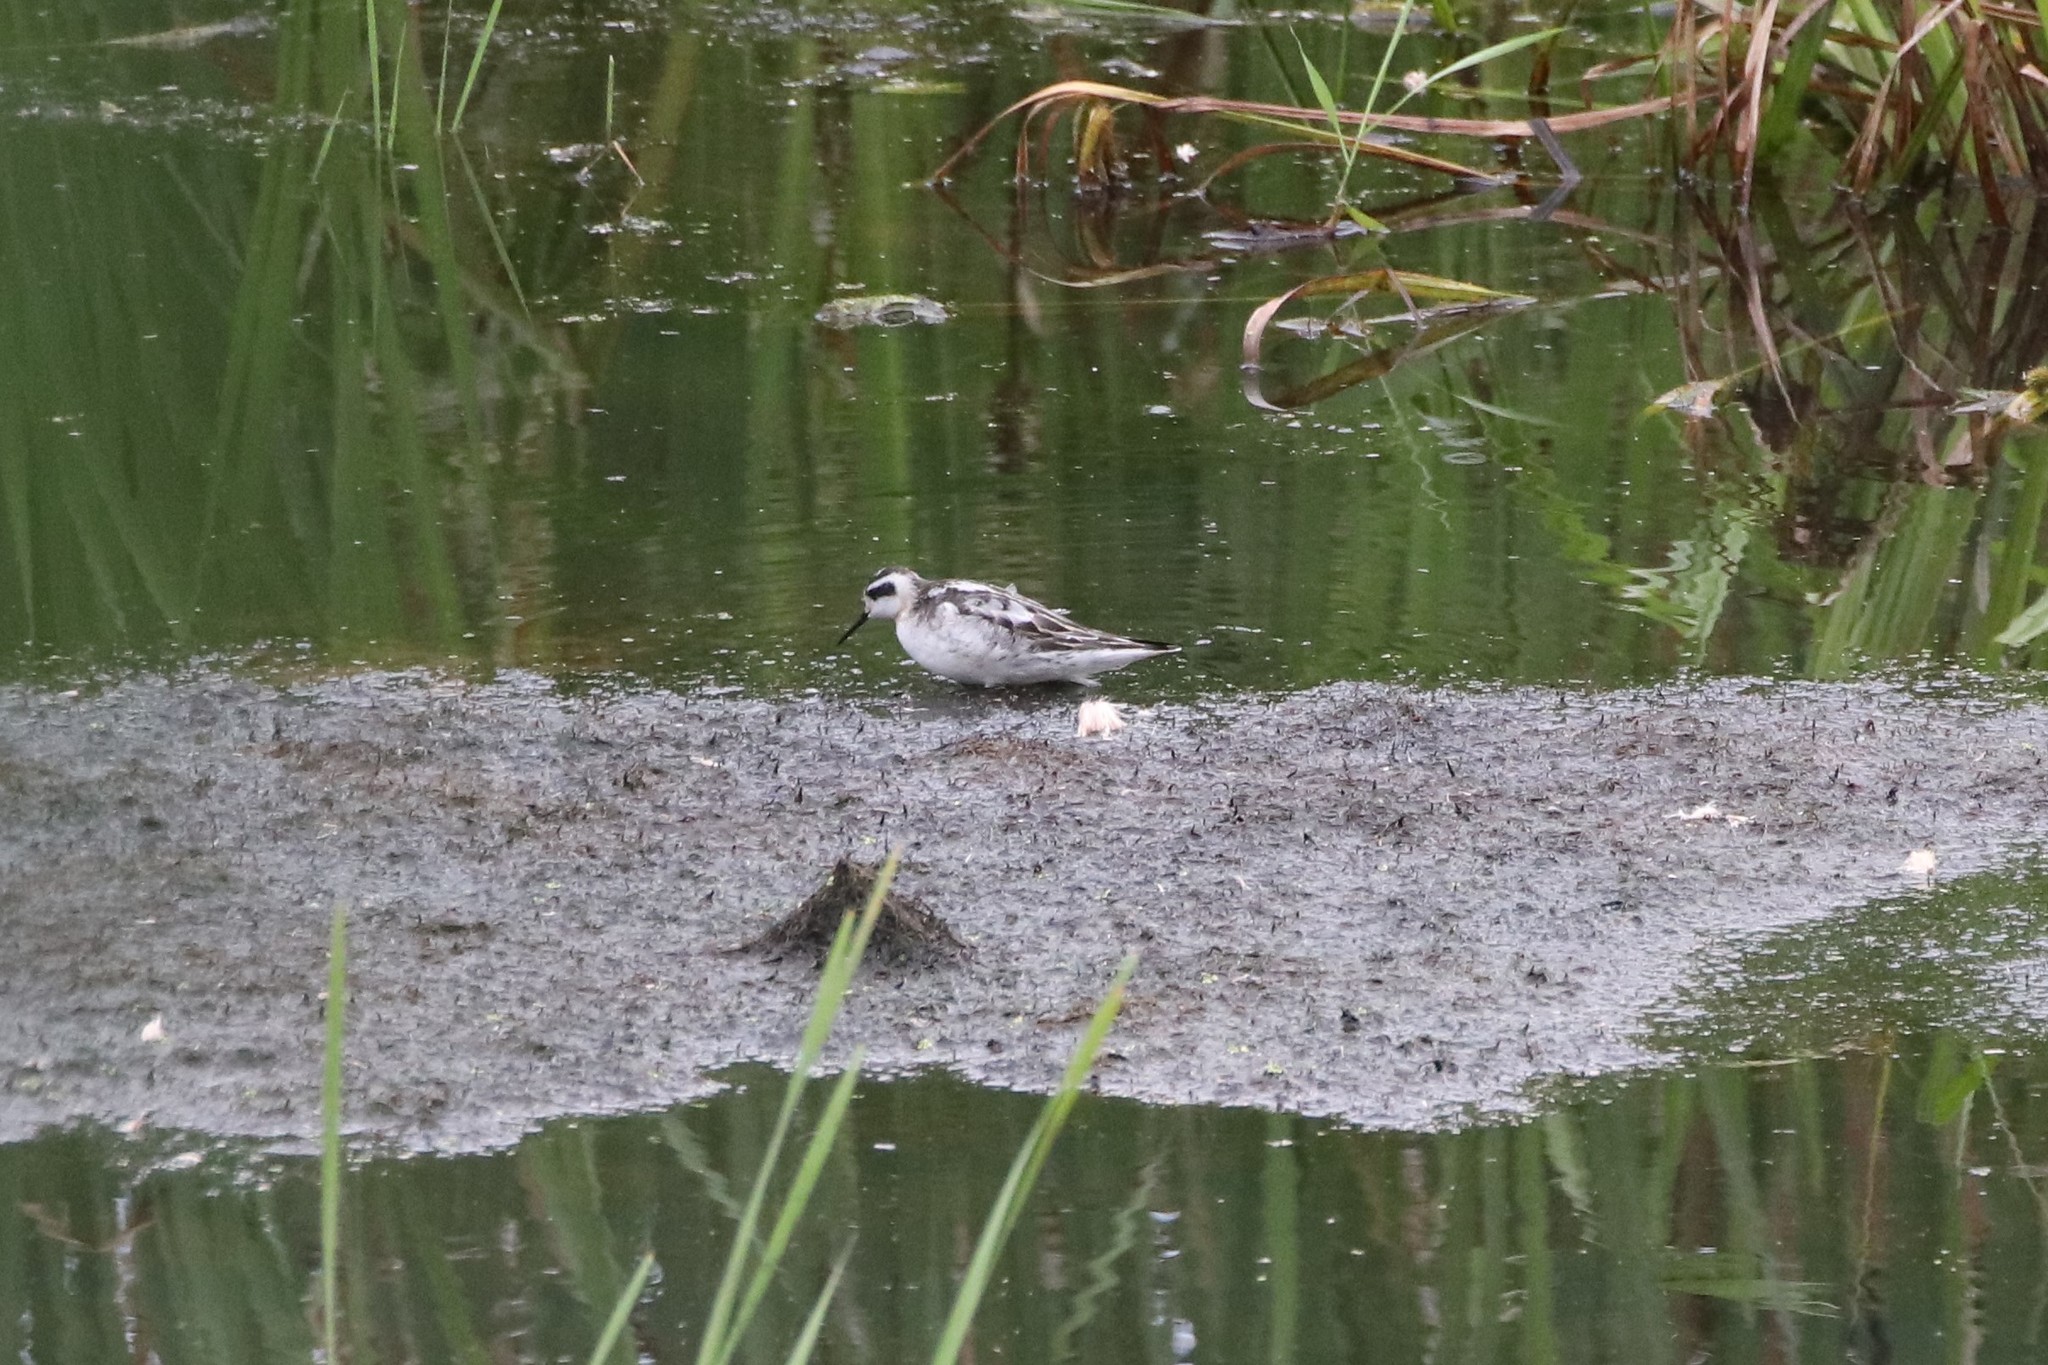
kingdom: Animalia
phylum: Chordata
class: Aves
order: Charadriiformes
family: Scolopacidae
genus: Phalaropus
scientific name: Phalaropus lobatus
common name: Red-necked phalarope
